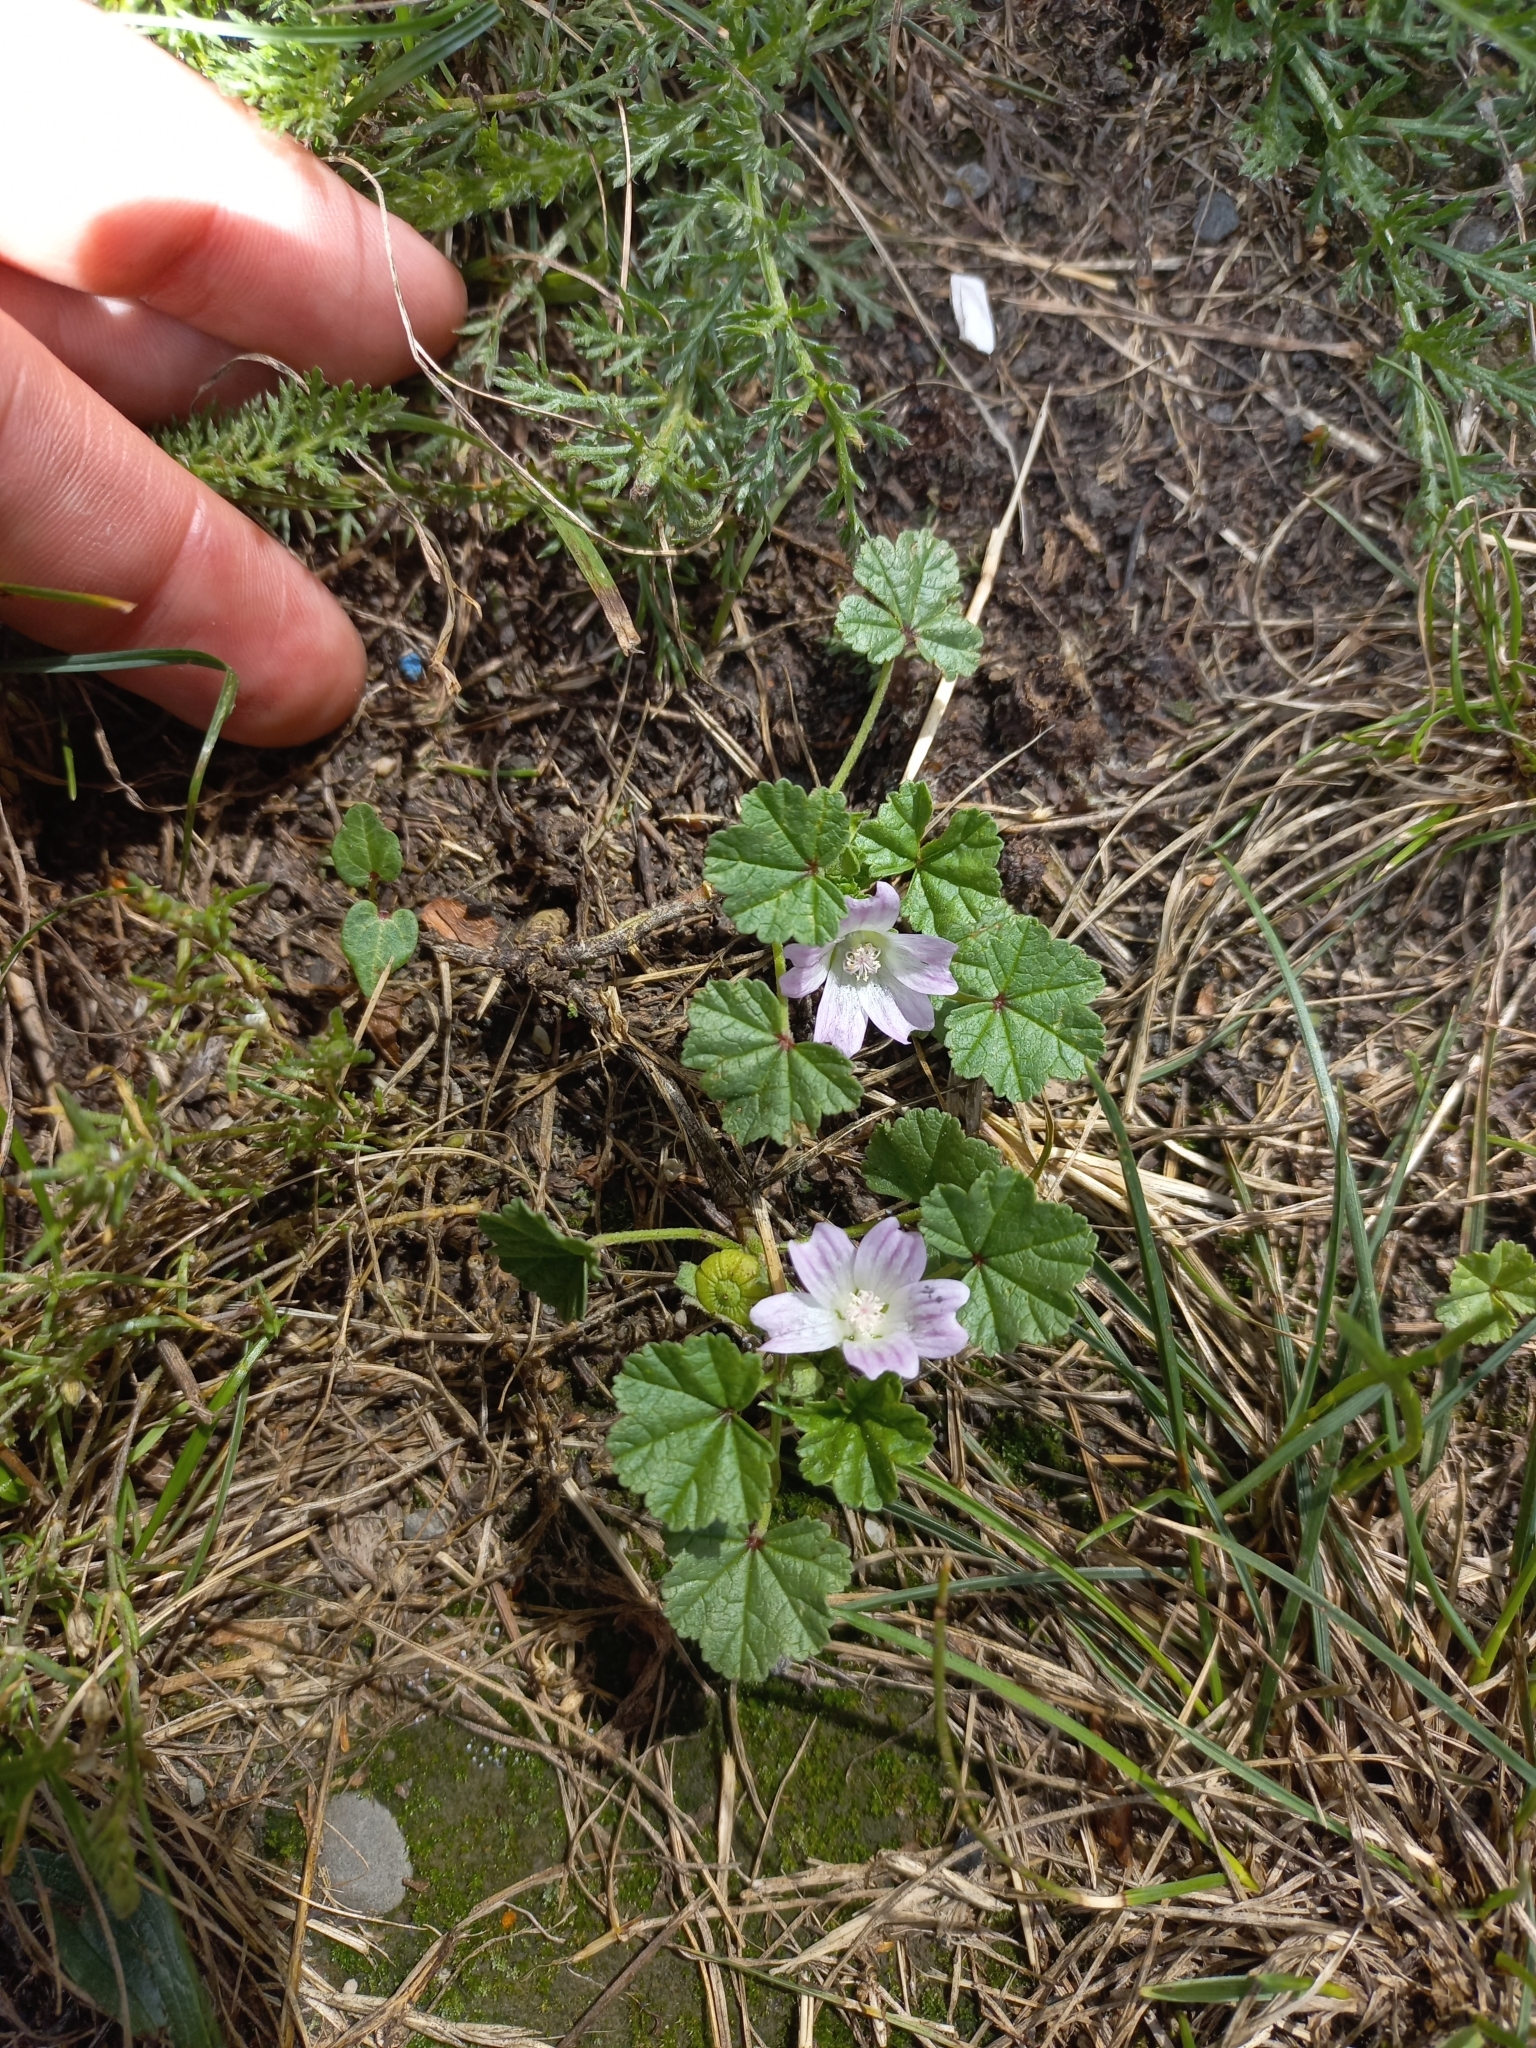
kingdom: Plantae
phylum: Tracheophyta
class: Magnoliopsida
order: Malvales
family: Malvaceae
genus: Malva
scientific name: Malva neglecta
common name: Common mallow
